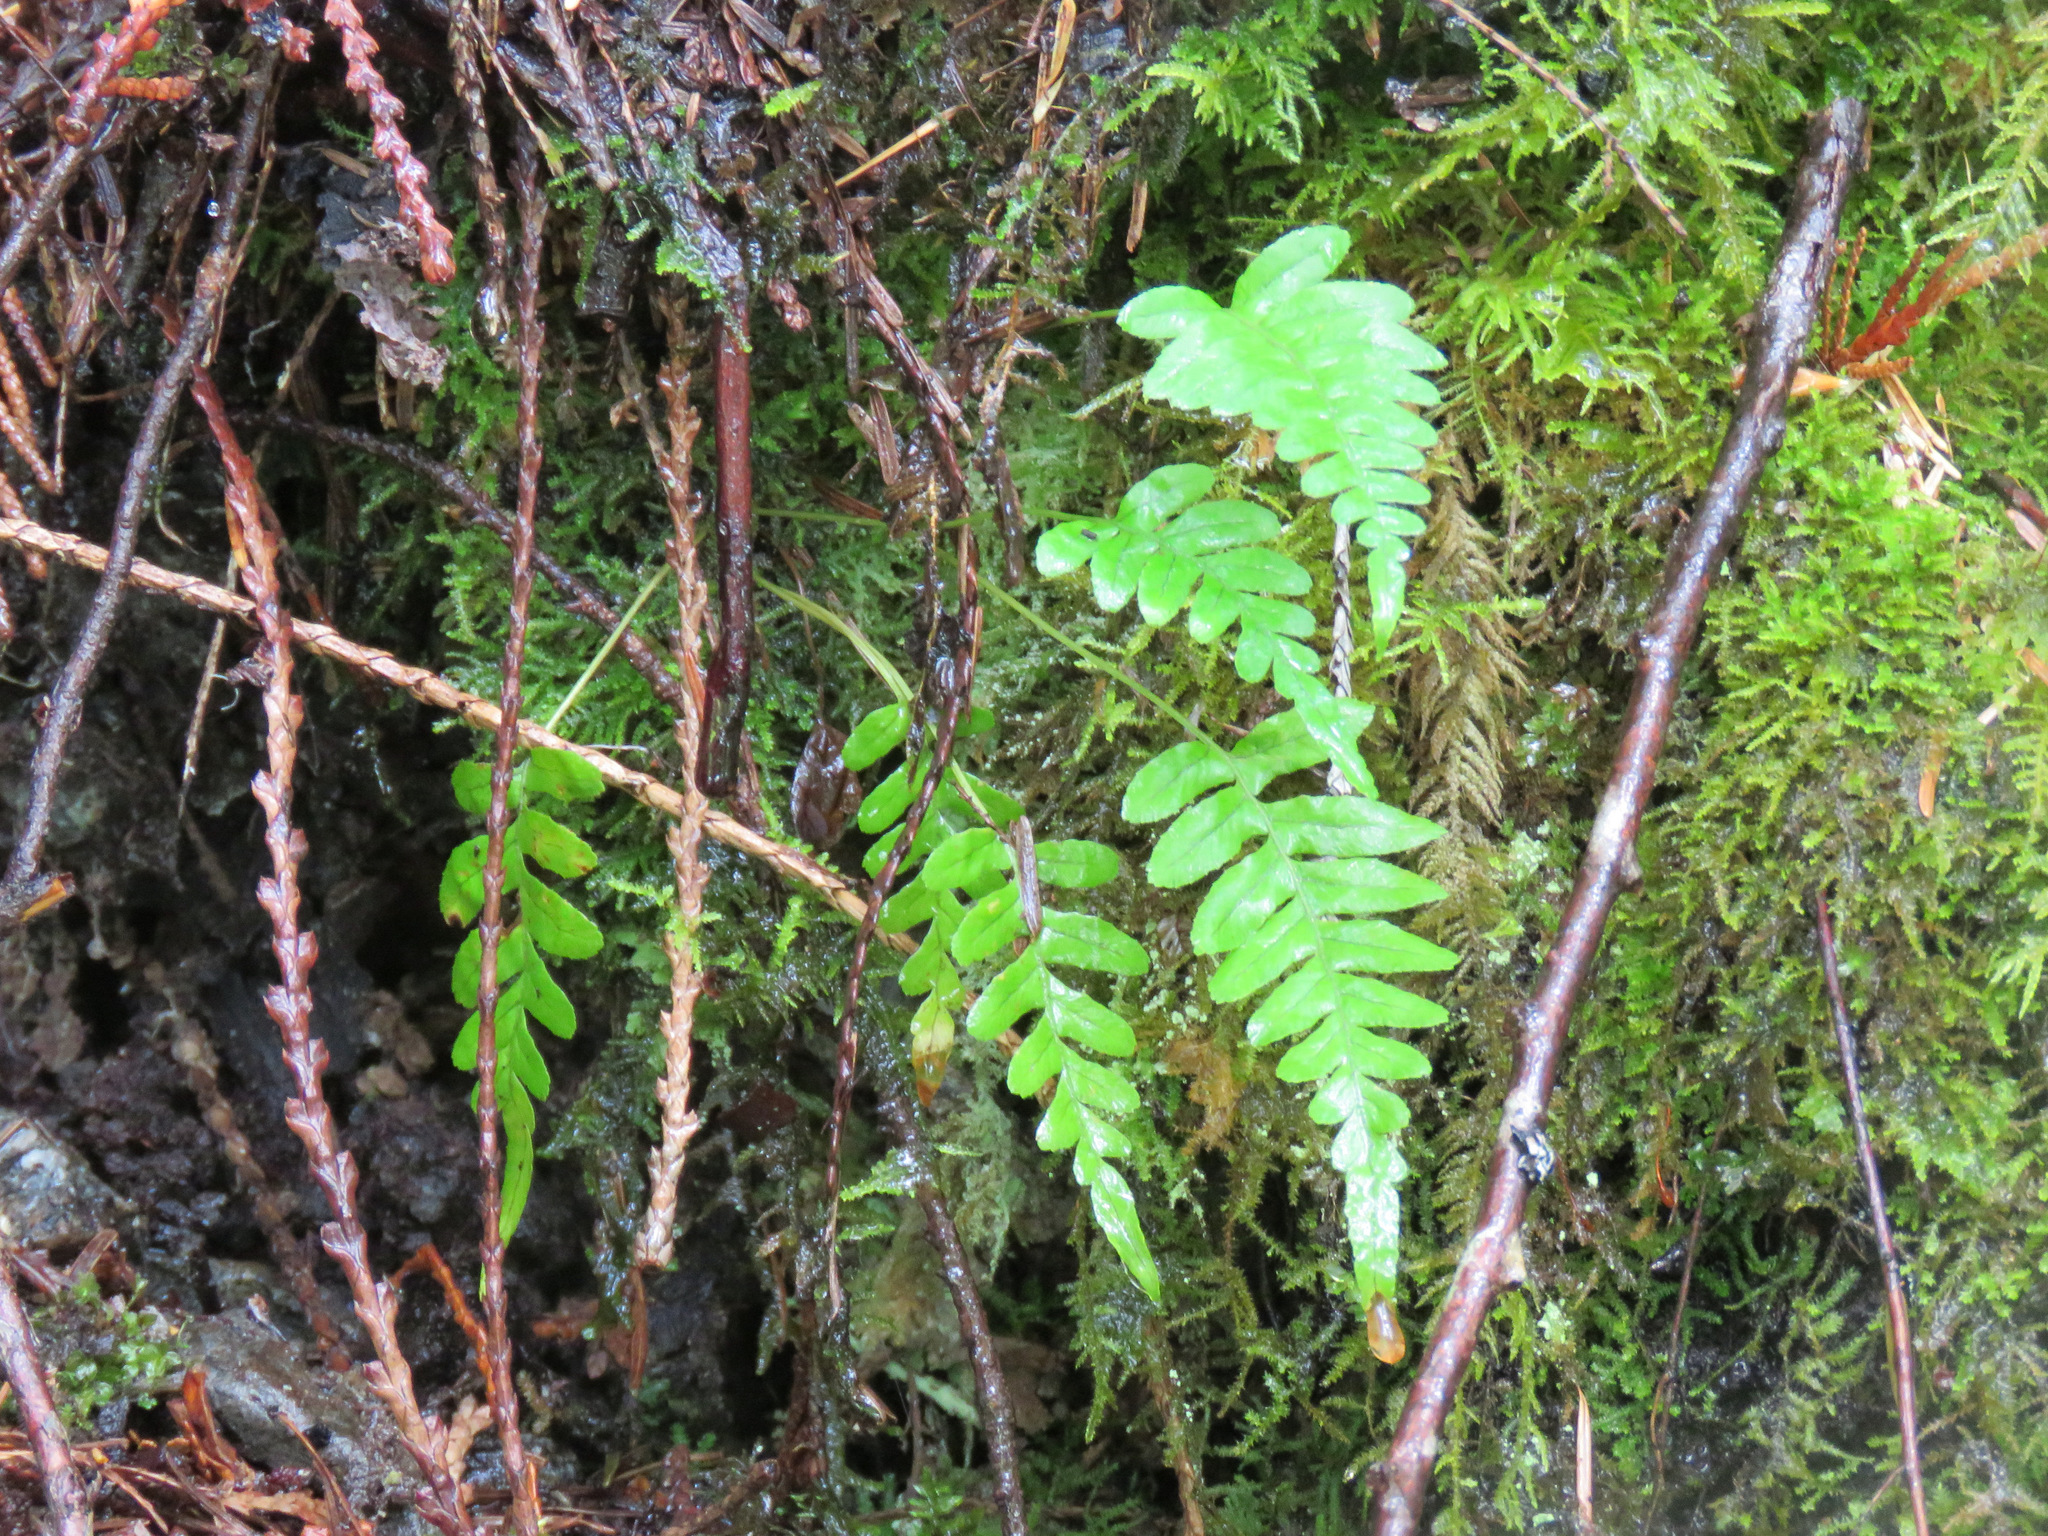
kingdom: Plantae
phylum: Tracheophyta
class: Polypodiopsida
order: Polypodiales
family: Polypodiaceae
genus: Polypodium
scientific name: Polypodium glycyrrhiza
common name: Licorice fern
